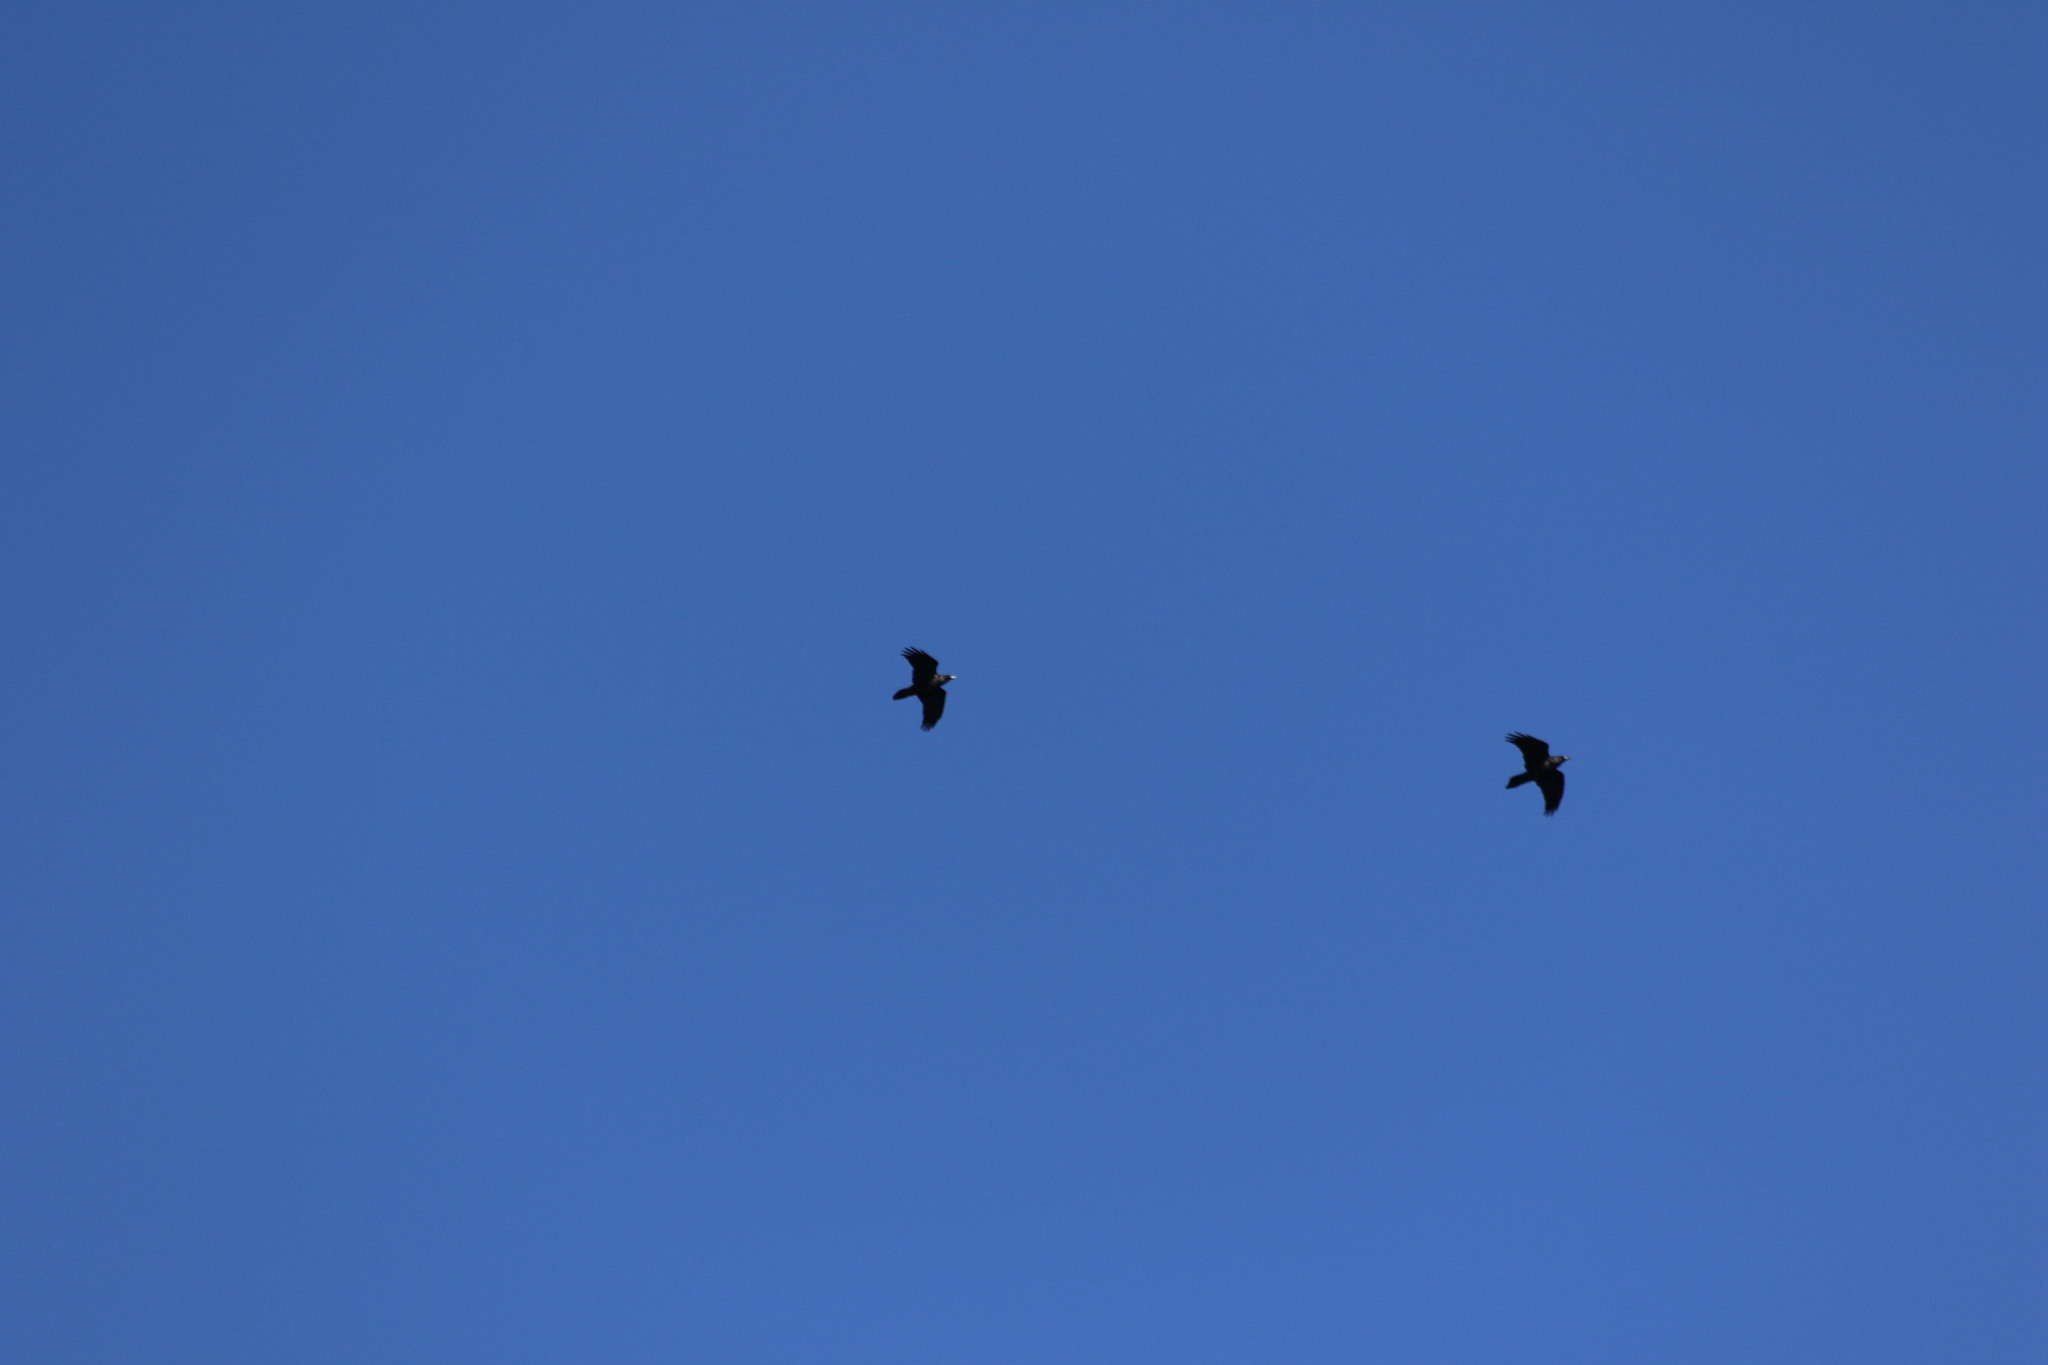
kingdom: Animalia
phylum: Chordata
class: Aves
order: Passeriformes
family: Corvidae
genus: Corvus
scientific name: Corvus corax
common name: Common raven
